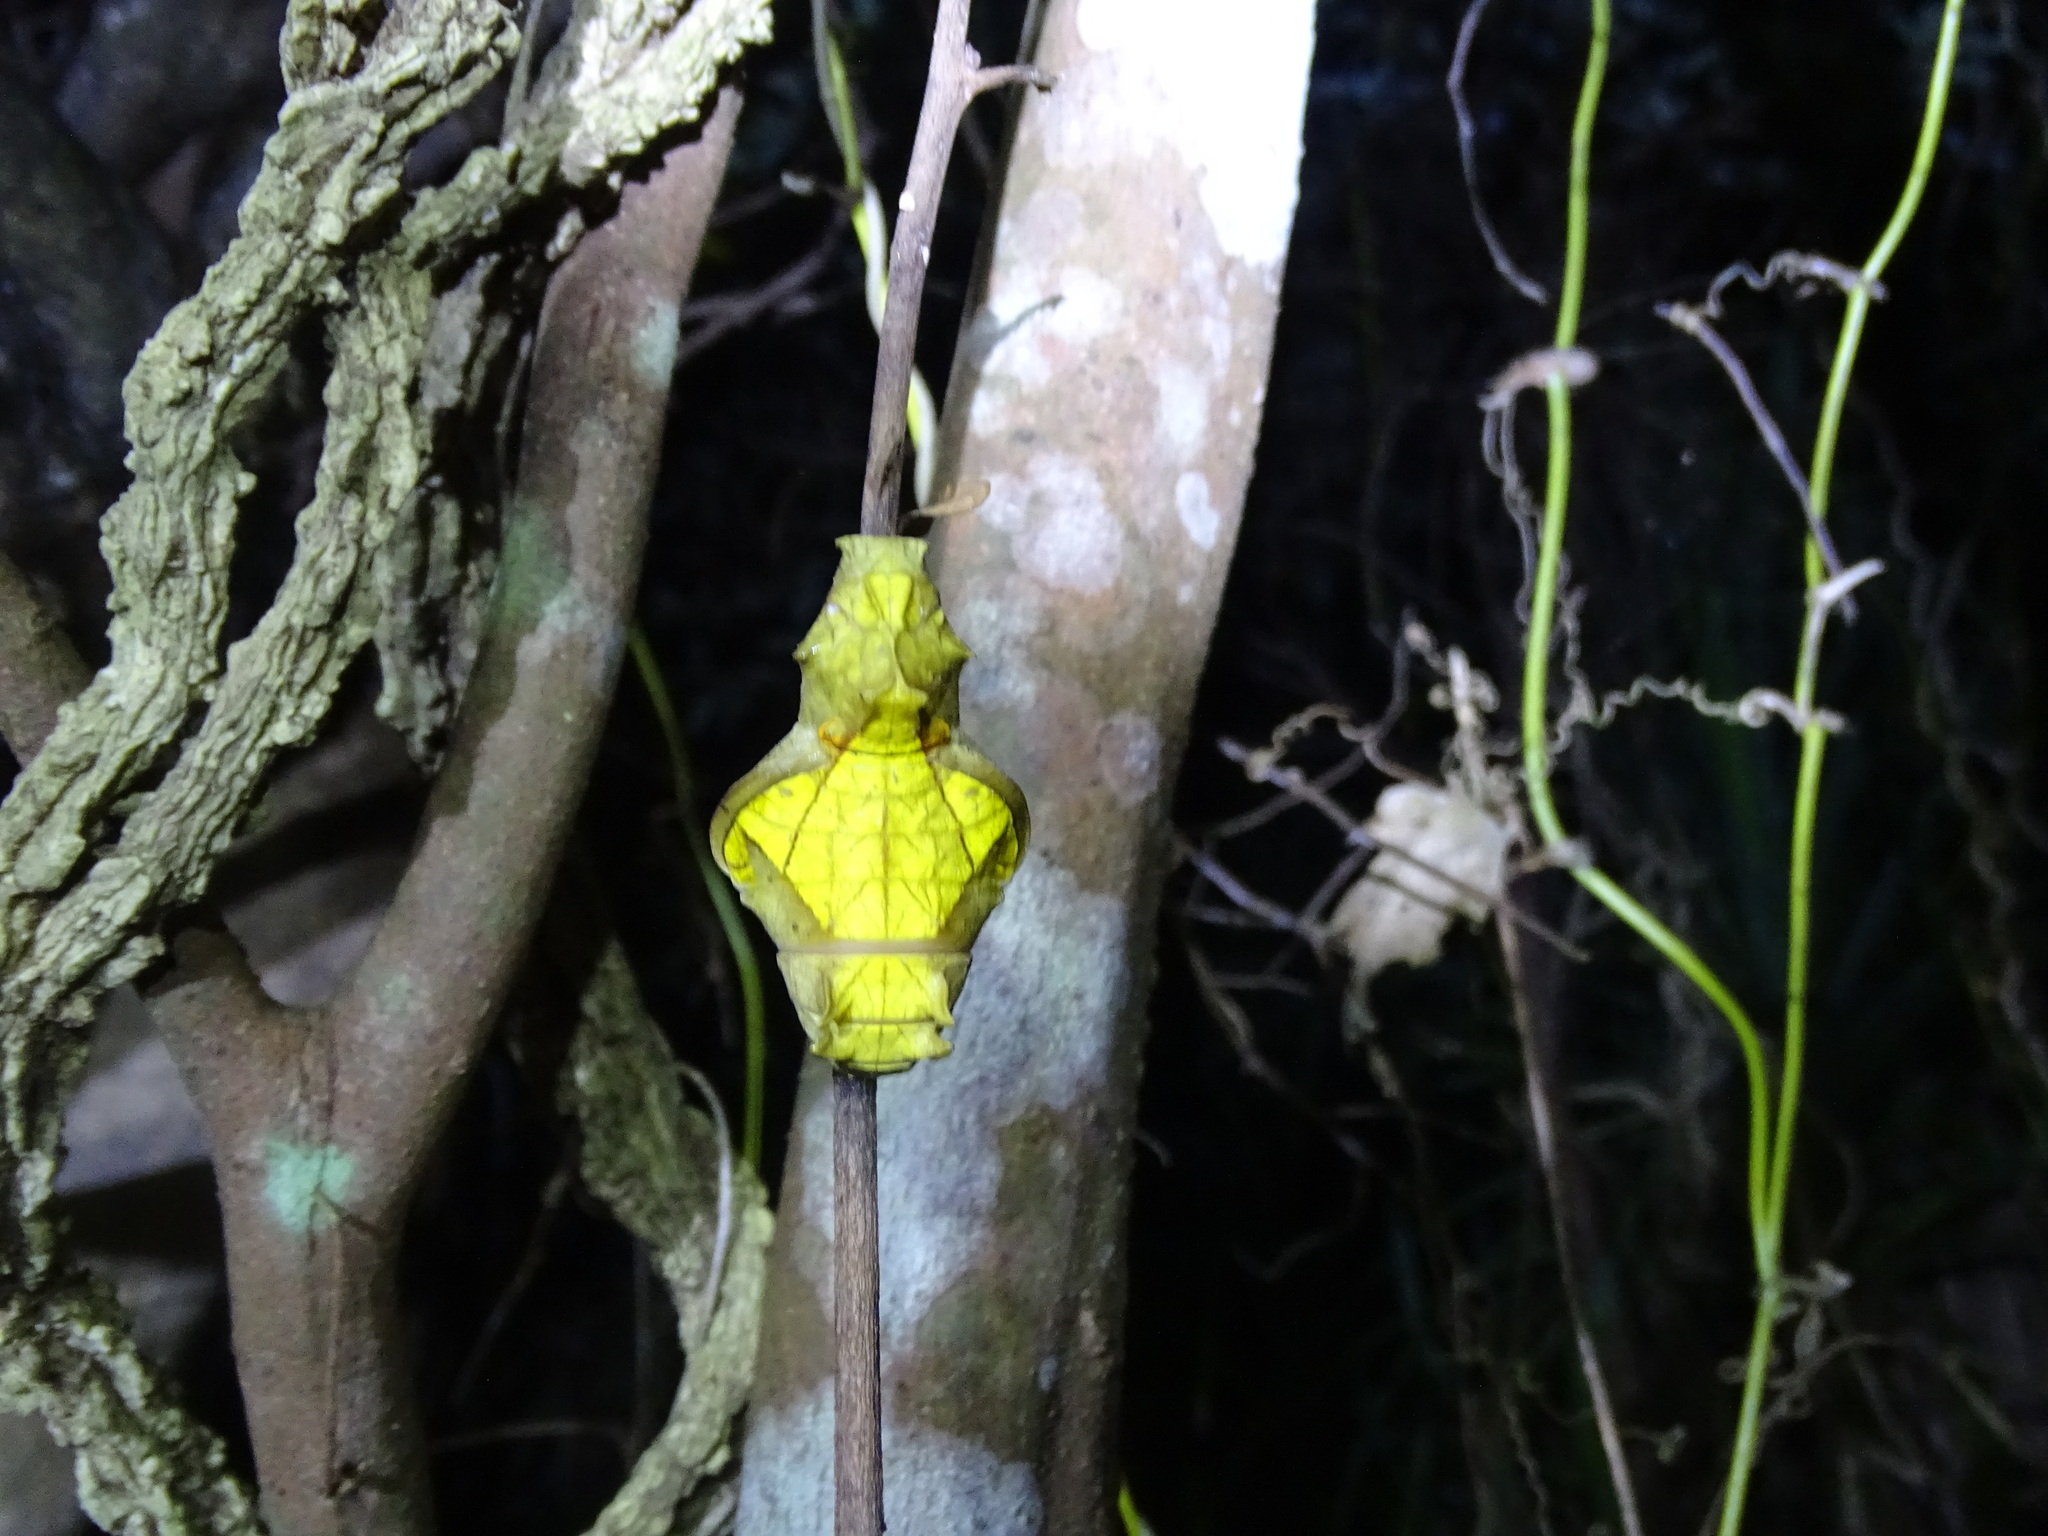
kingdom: Animalia
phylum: Arthropoda
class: Insecta
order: Lepidoptera
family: Papilionidae
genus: Troides
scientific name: Troides aeacus
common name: Golden birdwing
